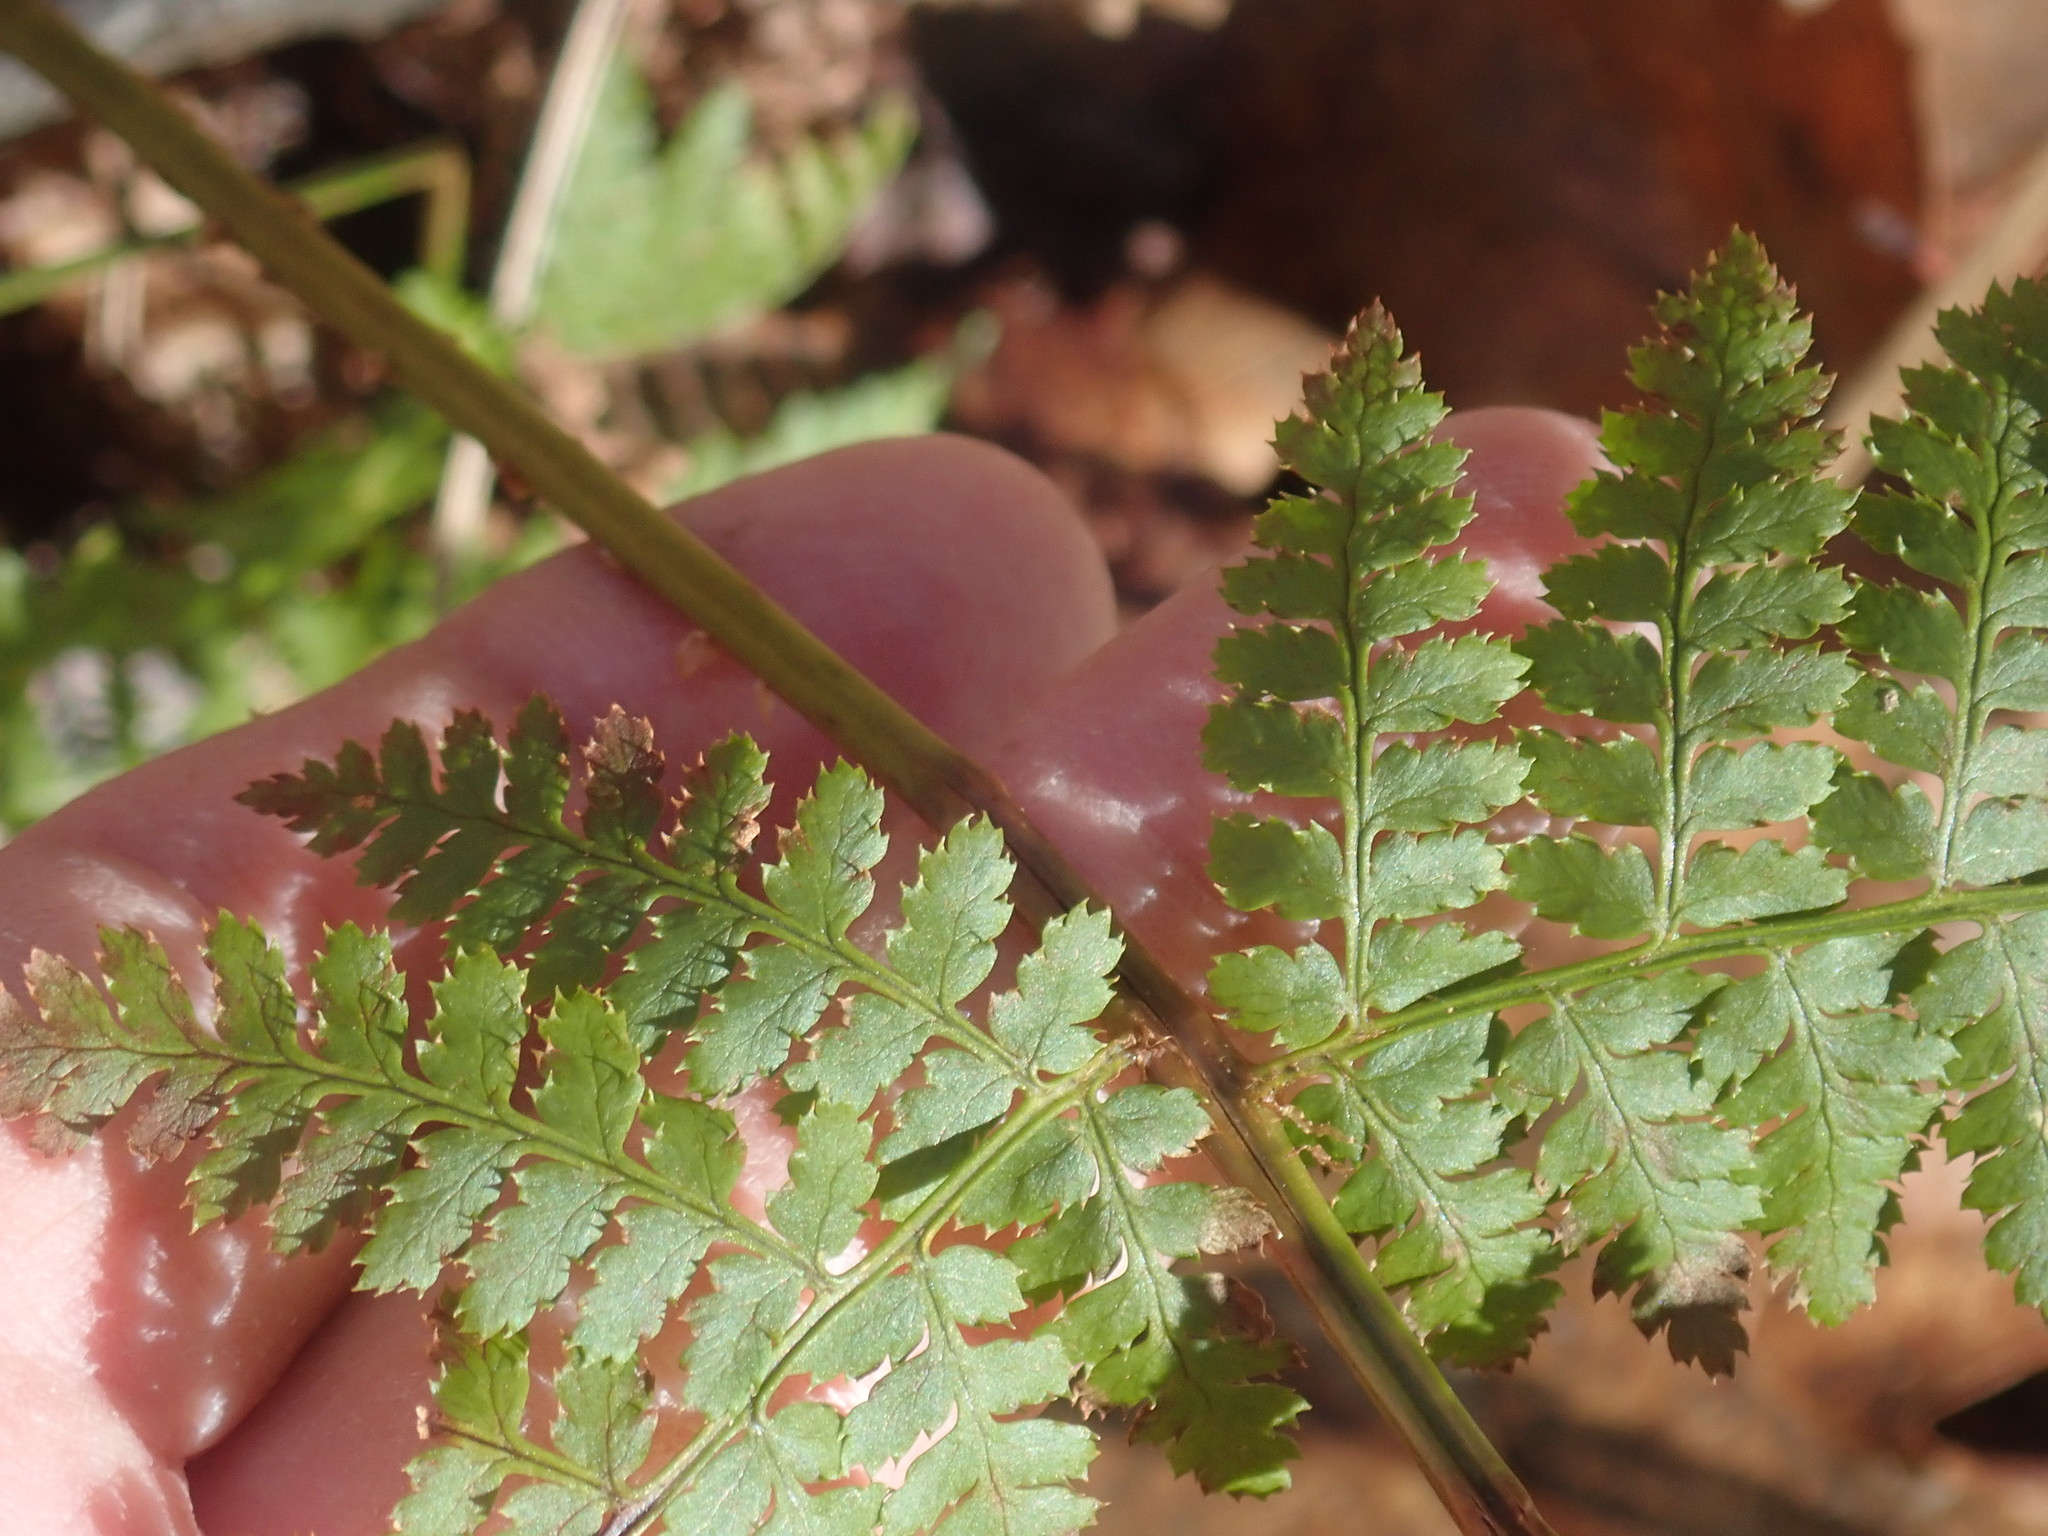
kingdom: Plantae
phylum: Tracheophyta
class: Polypodiopsida
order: Polypodiales
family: Dryopteridaceae
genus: Dryopteris
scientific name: Dryopteris intermedia
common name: Evergreen wood fern
